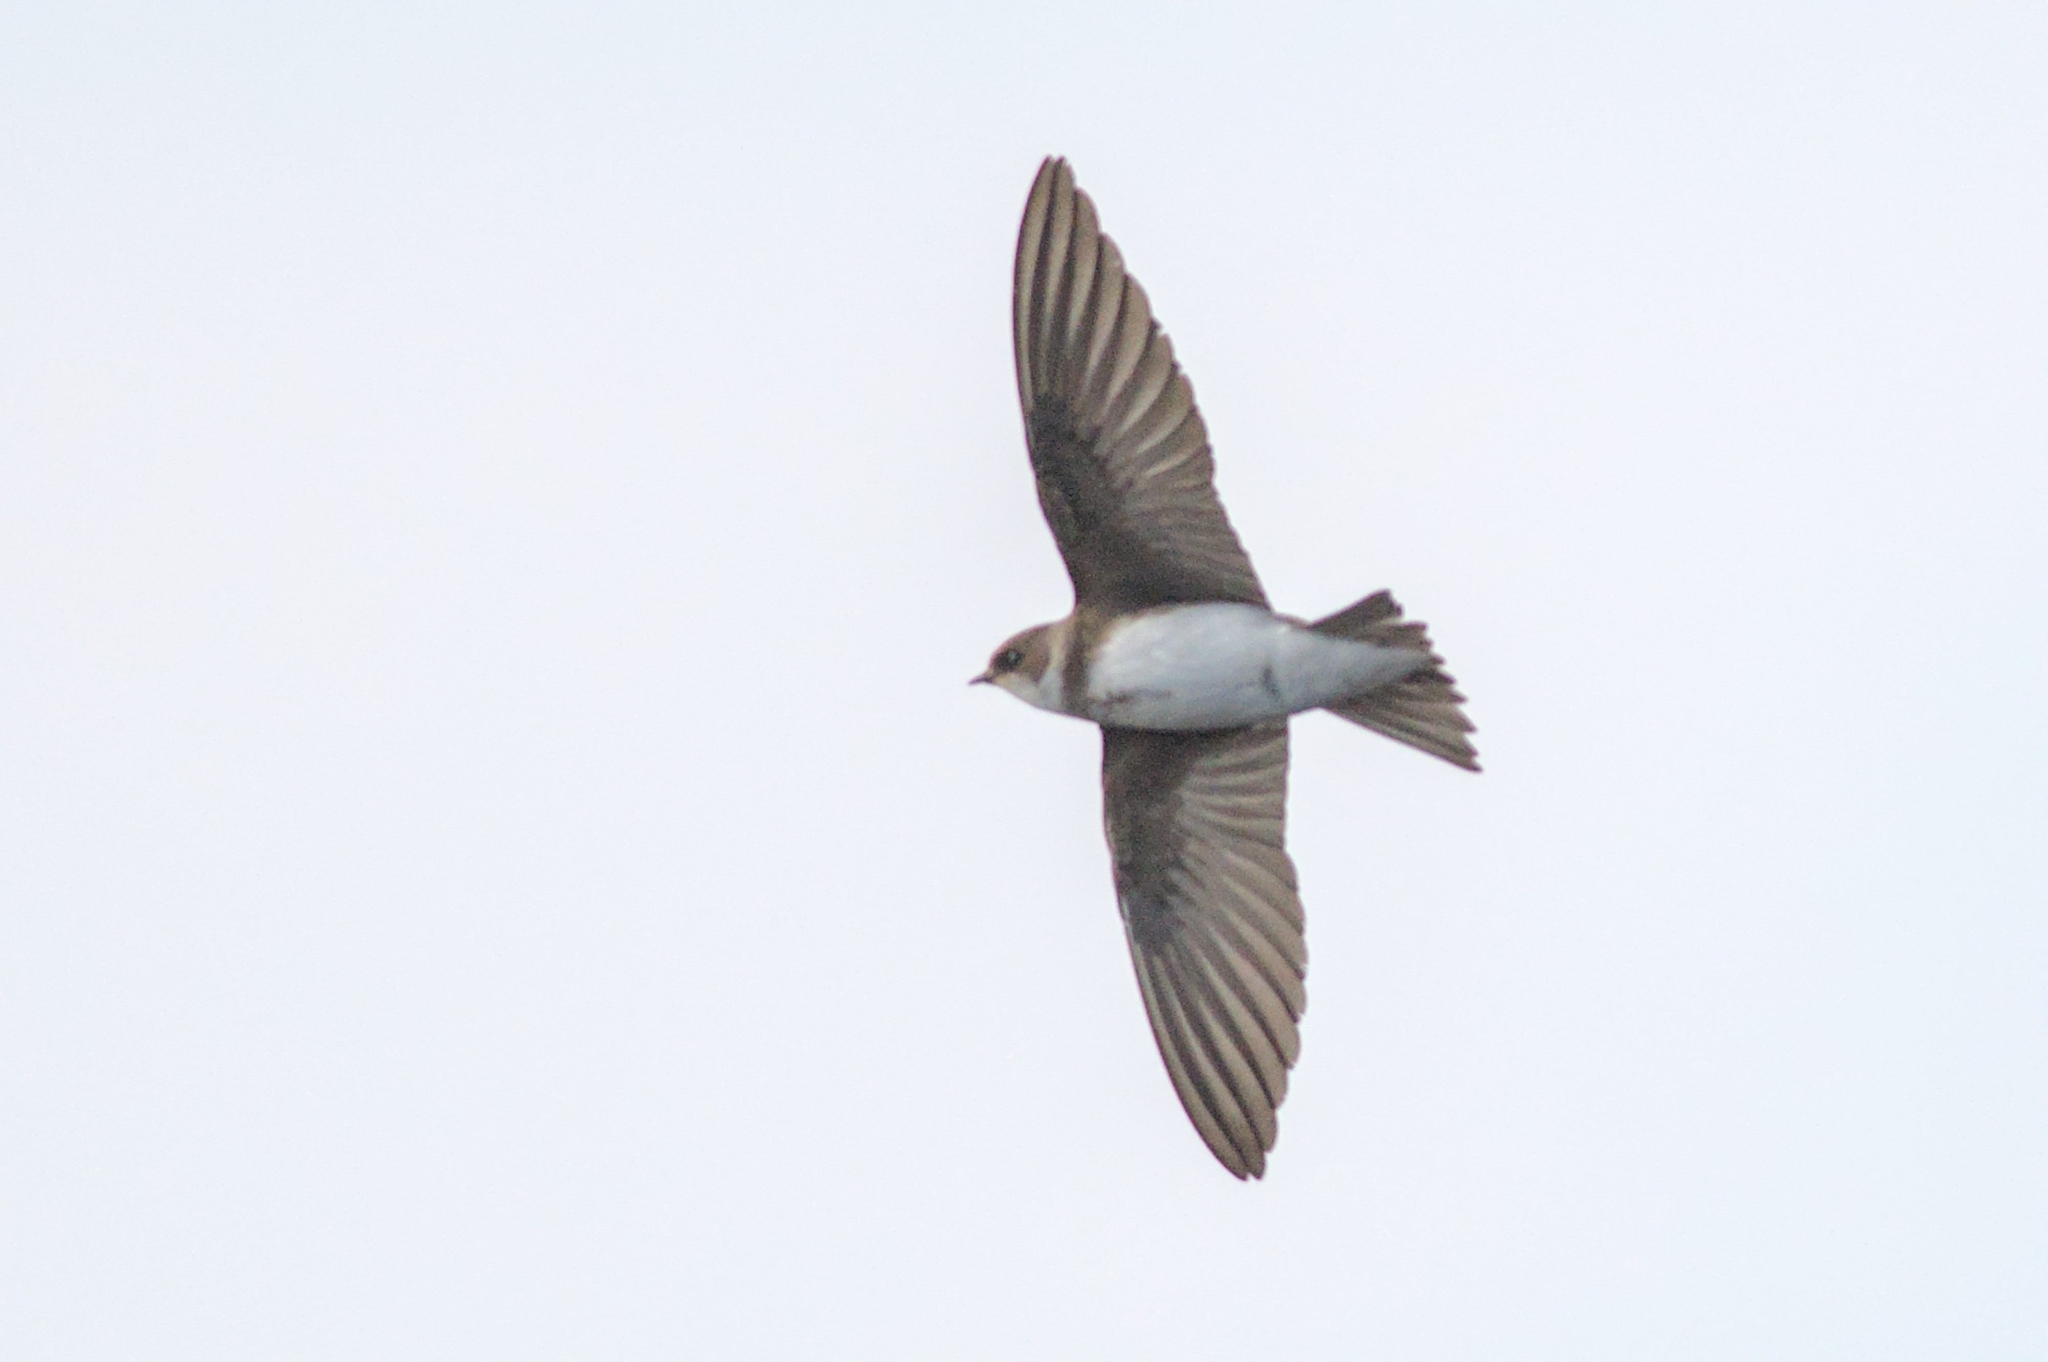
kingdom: Animalia
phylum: Chordata
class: Aves
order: Passeriformes
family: Hirundinidae
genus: Riparia
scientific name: Riparia riparia
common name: Sand martin
